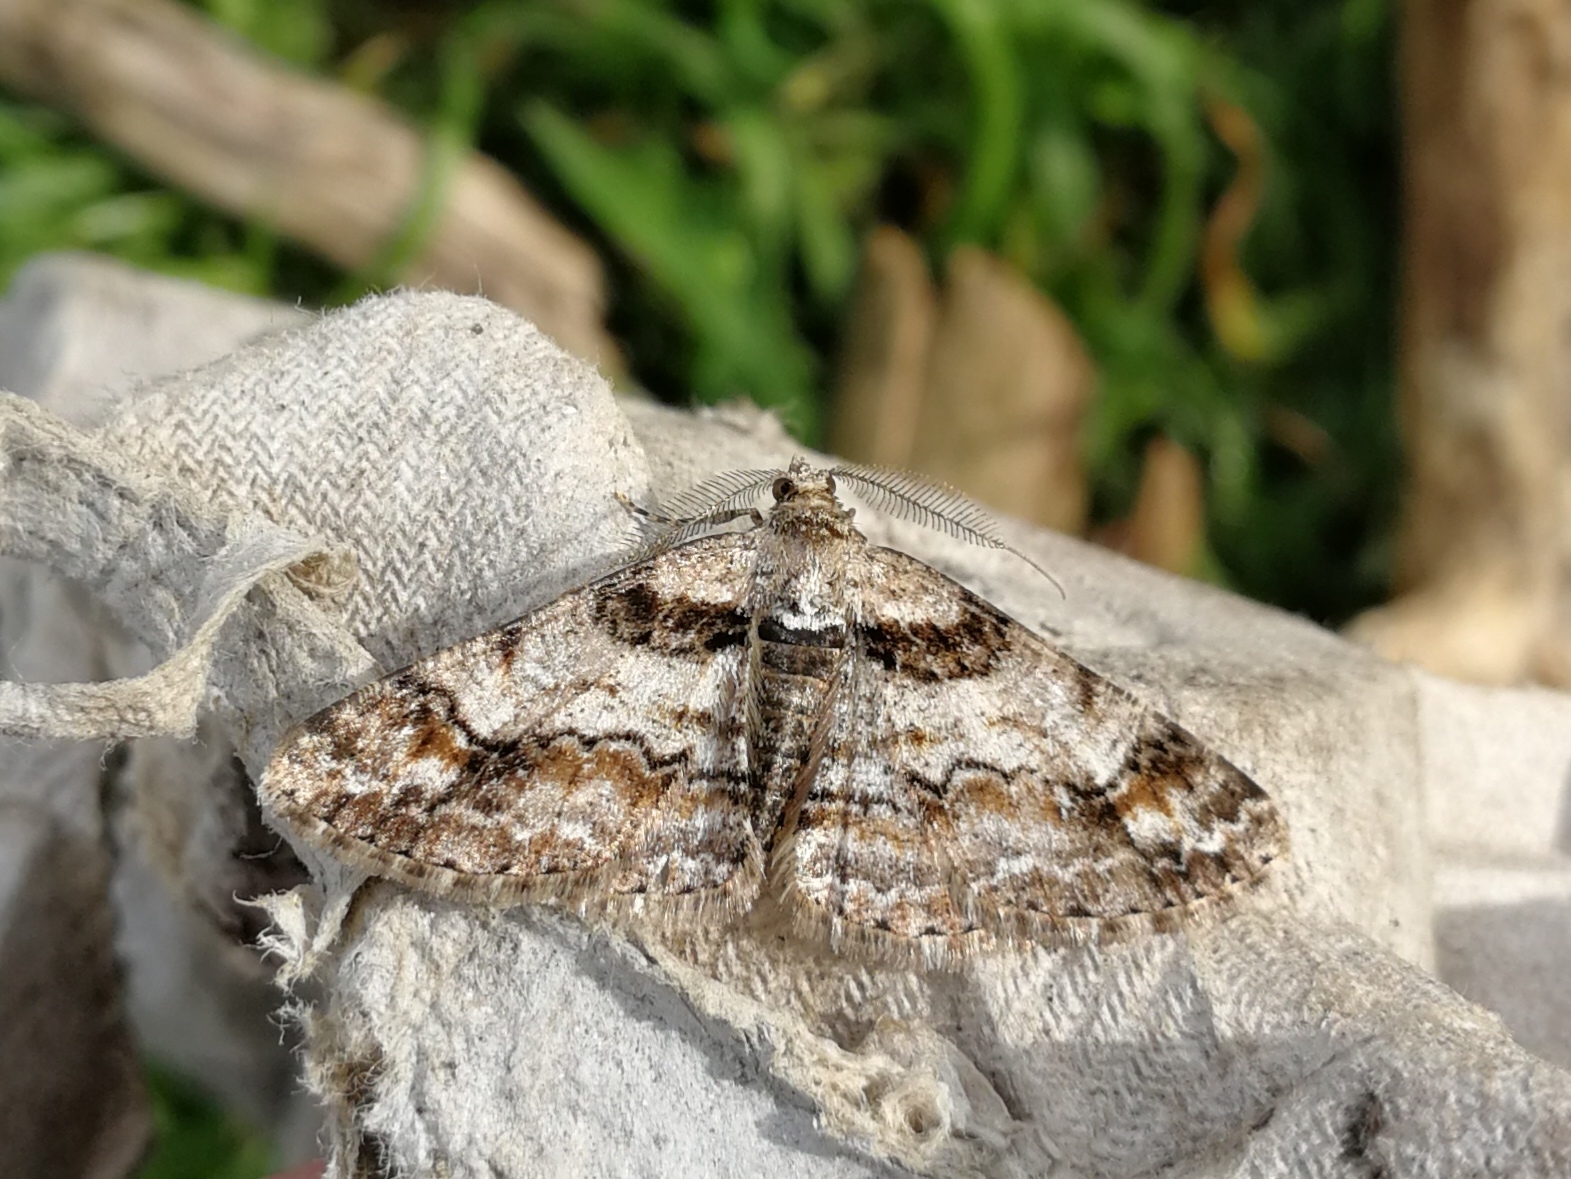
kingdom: Animalia
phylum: Arthropoda
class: Insecta
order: Lepidoptera
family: Geometridae
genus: Cleora
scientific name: Cleora cinctaria
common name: Ringed carpet
